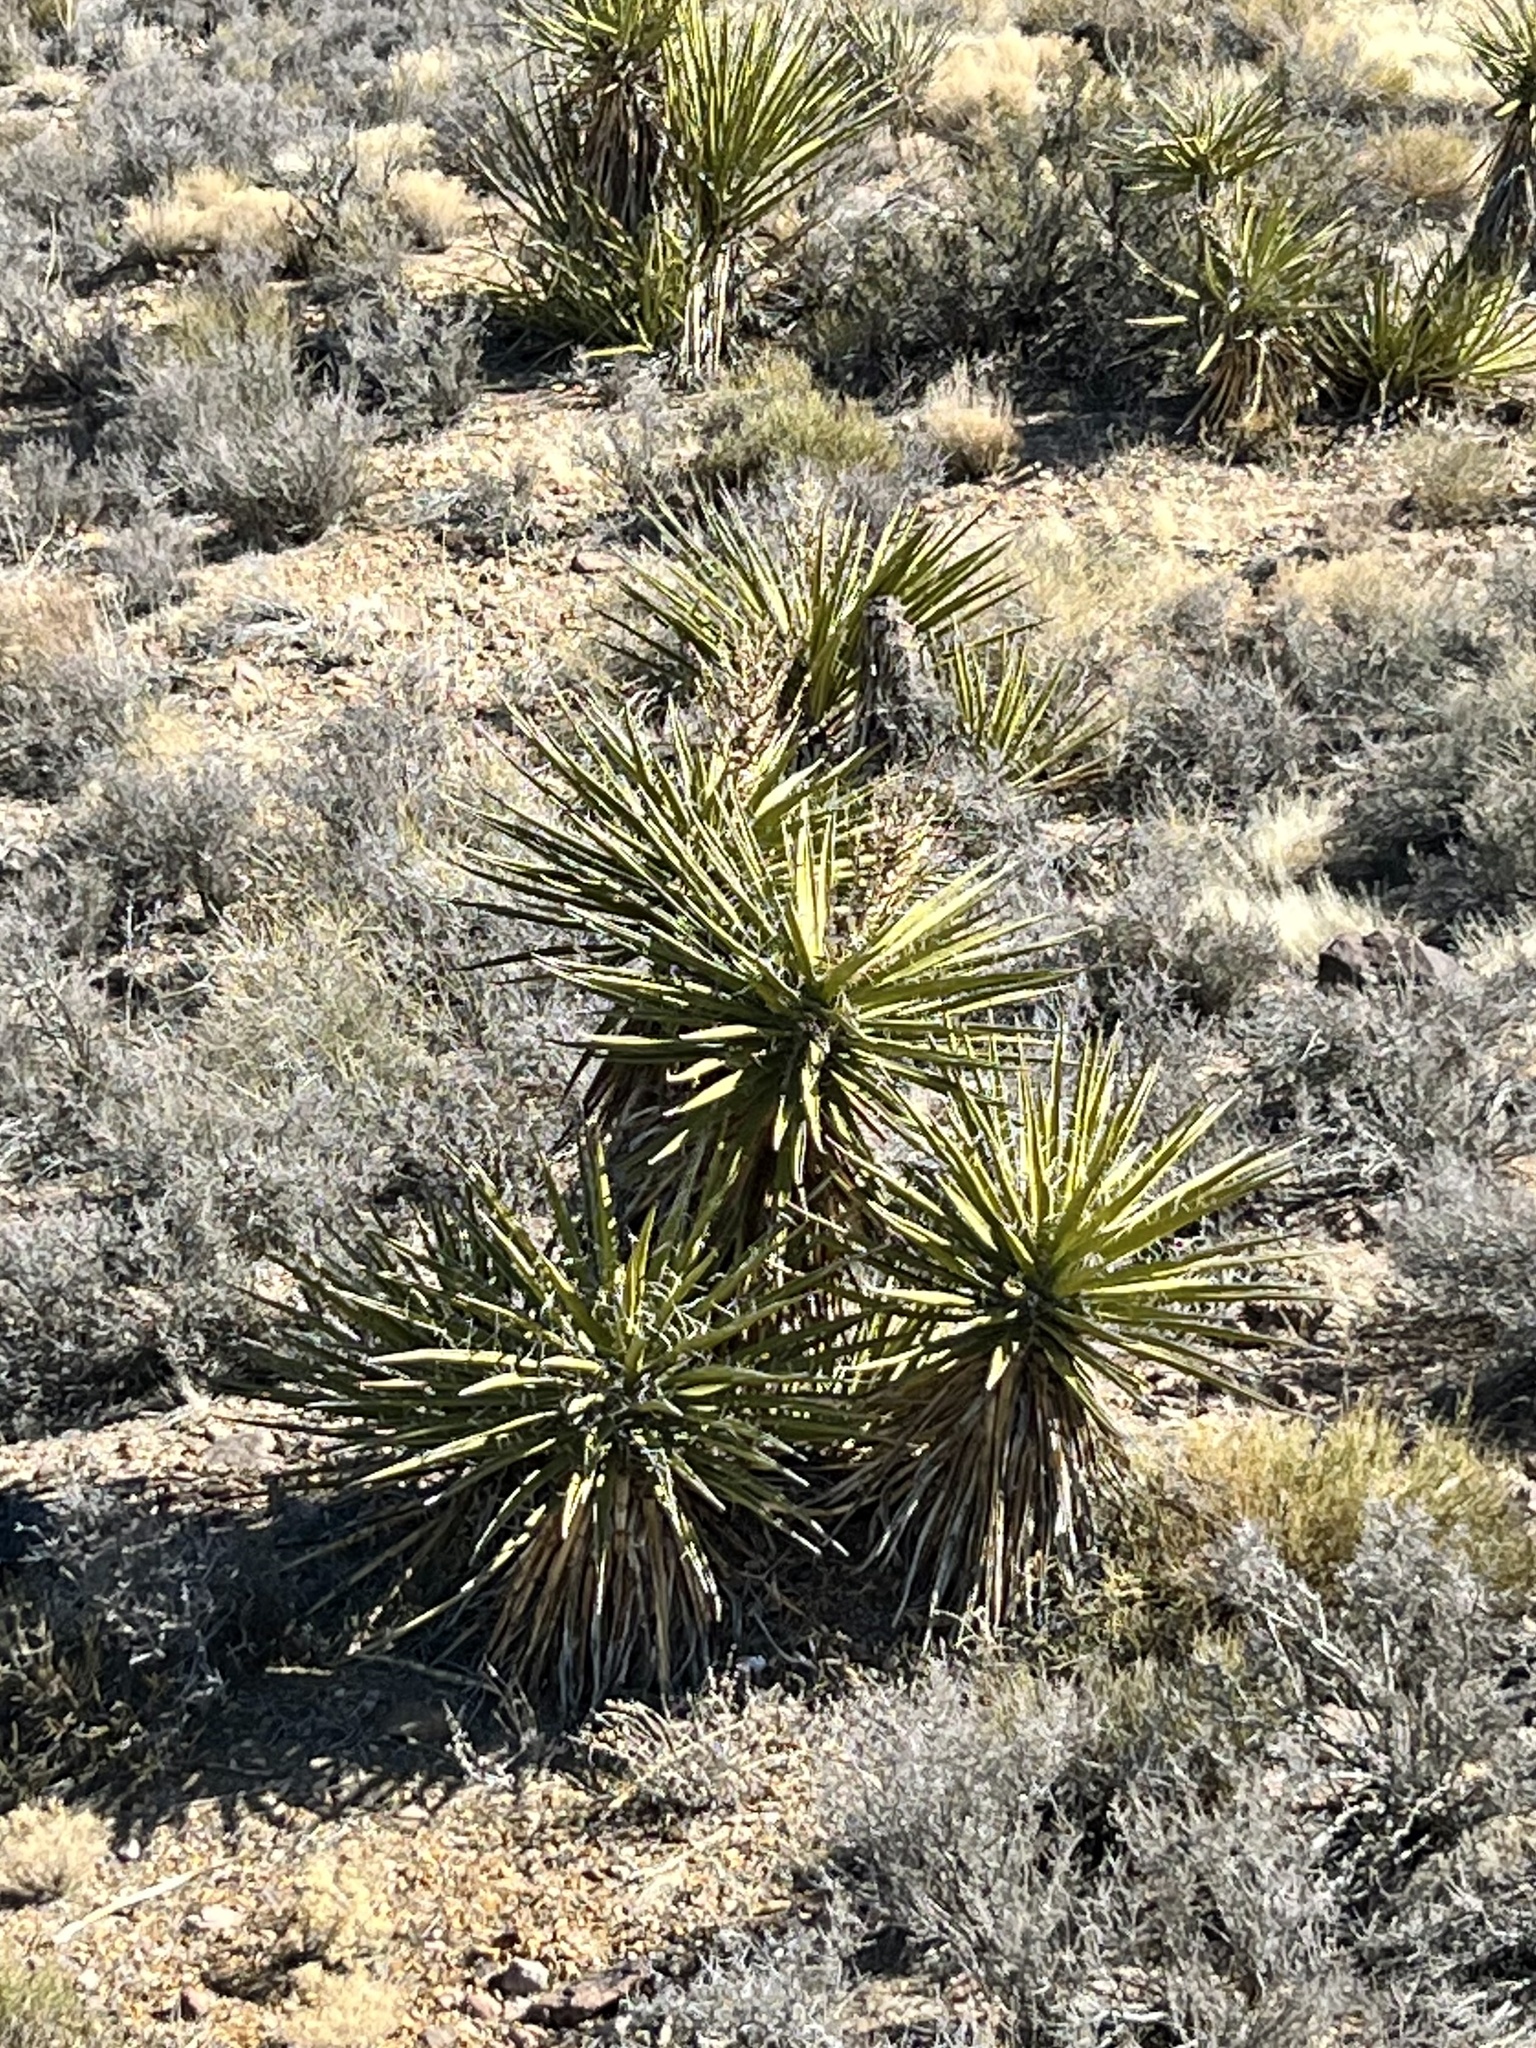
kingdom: Plantae
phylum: Tracheophyta
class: Liliopsida
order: Asparagales
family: Asparagaceae
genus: Yucca
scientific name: Yucca schidigera
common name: Mojave yucca
